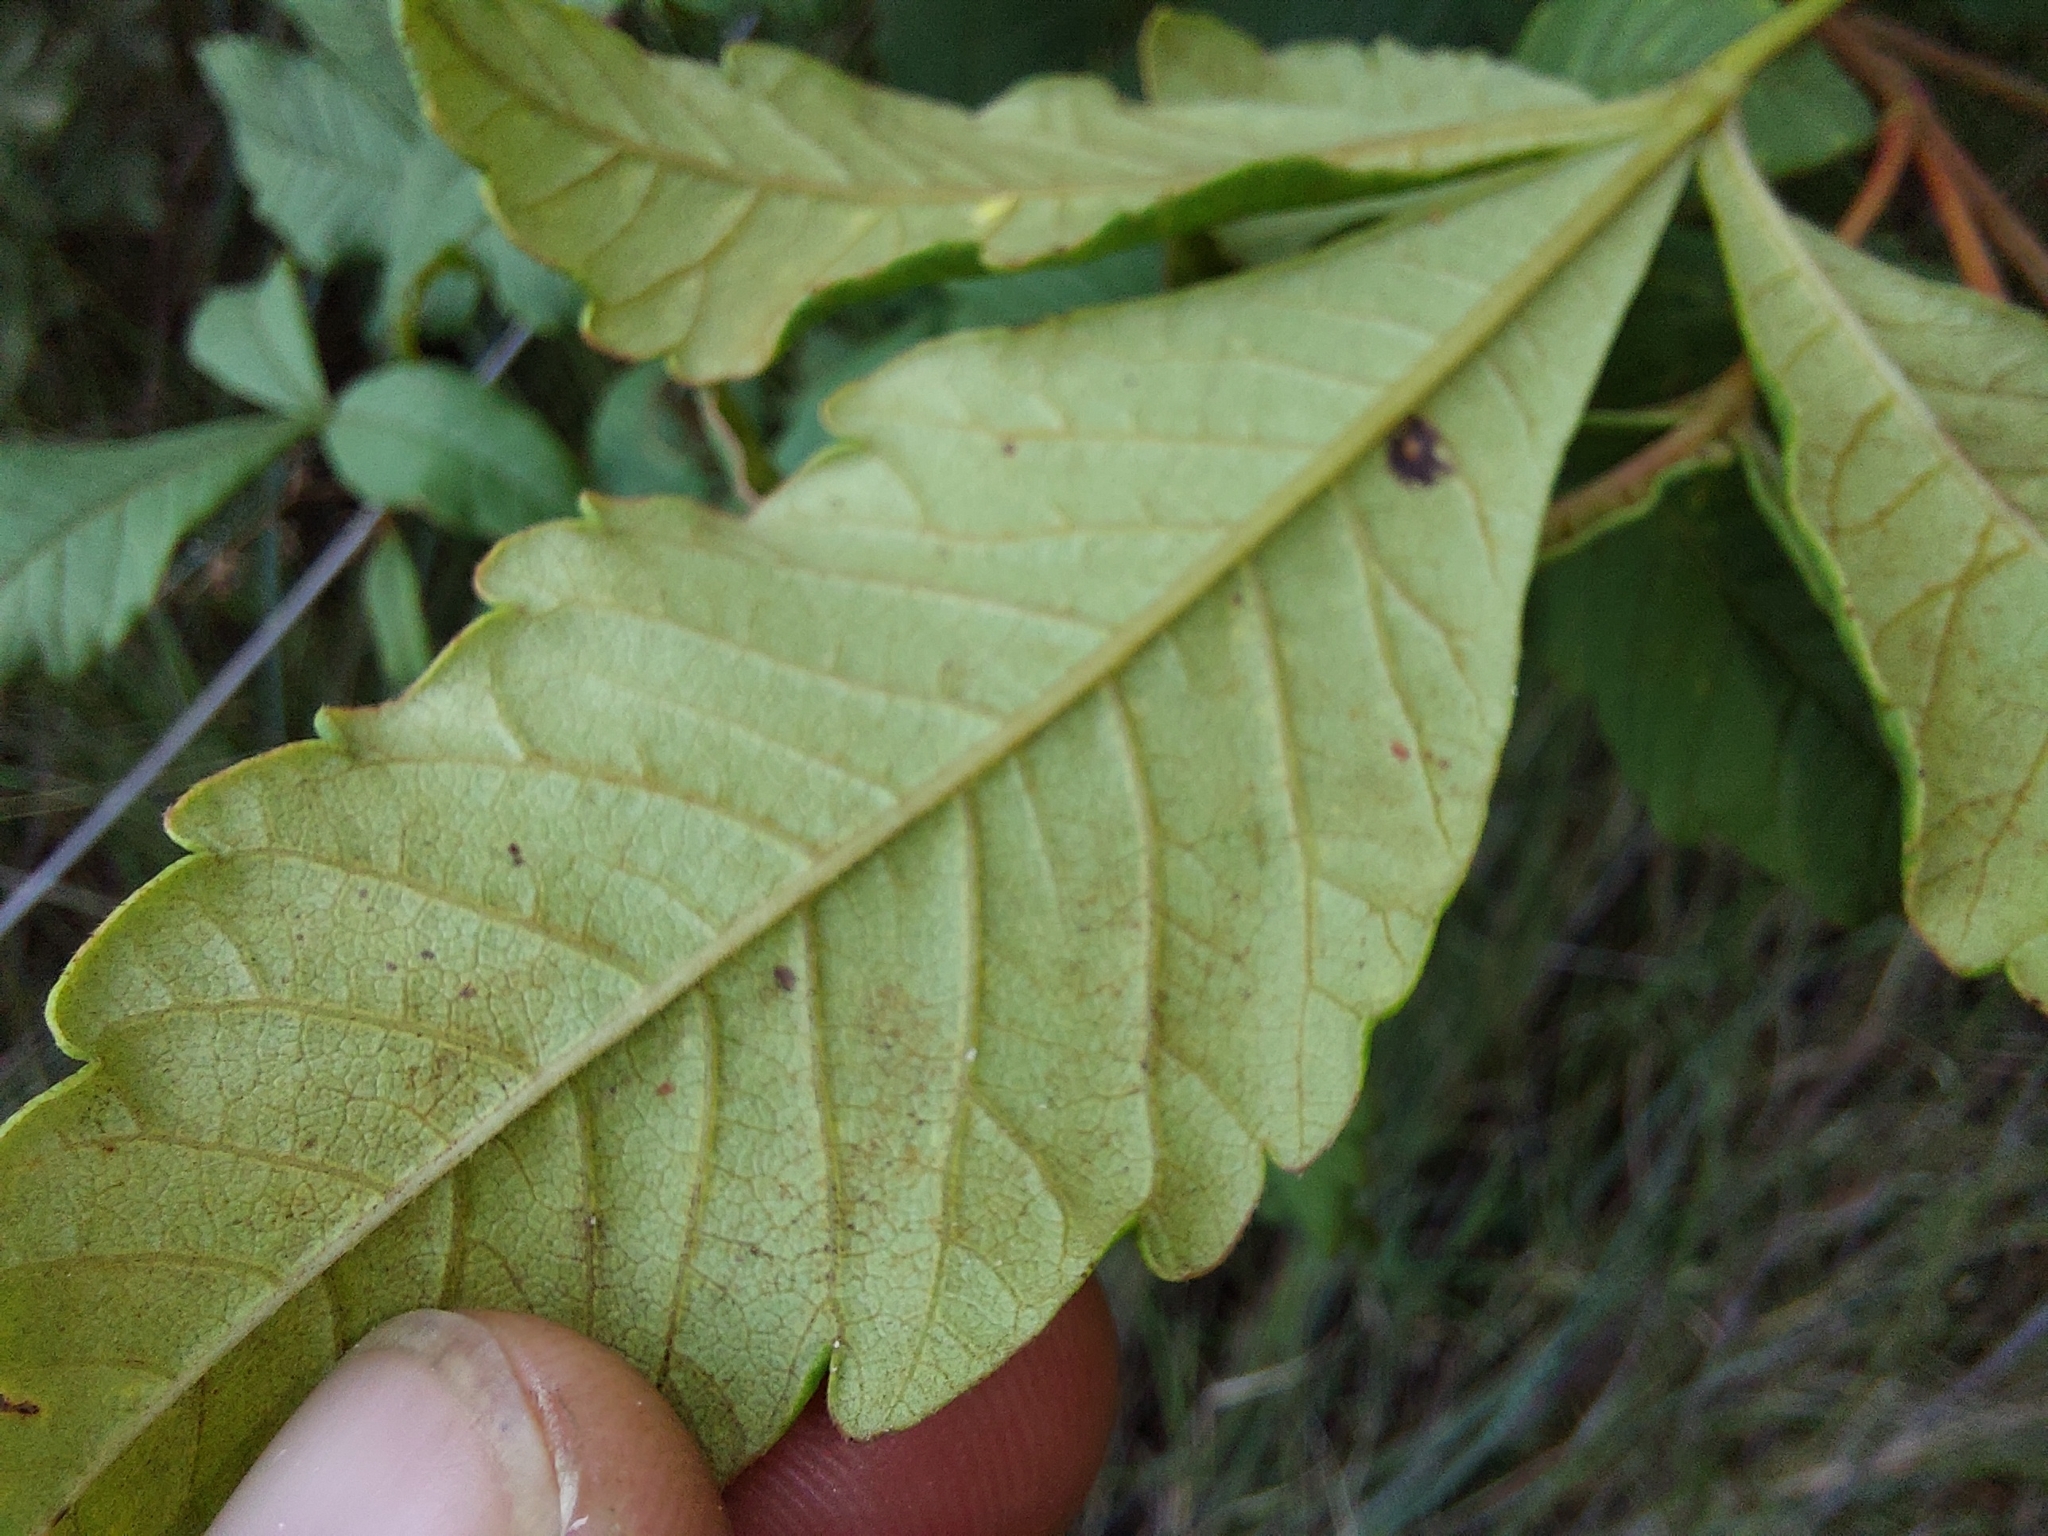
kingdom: Plantae
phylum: Tracheophyta
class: Magnoliopsida
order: Sapindales
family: Anacardiaceae
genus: Searsia
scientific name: Searsia montana
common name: Drakensberg karee
